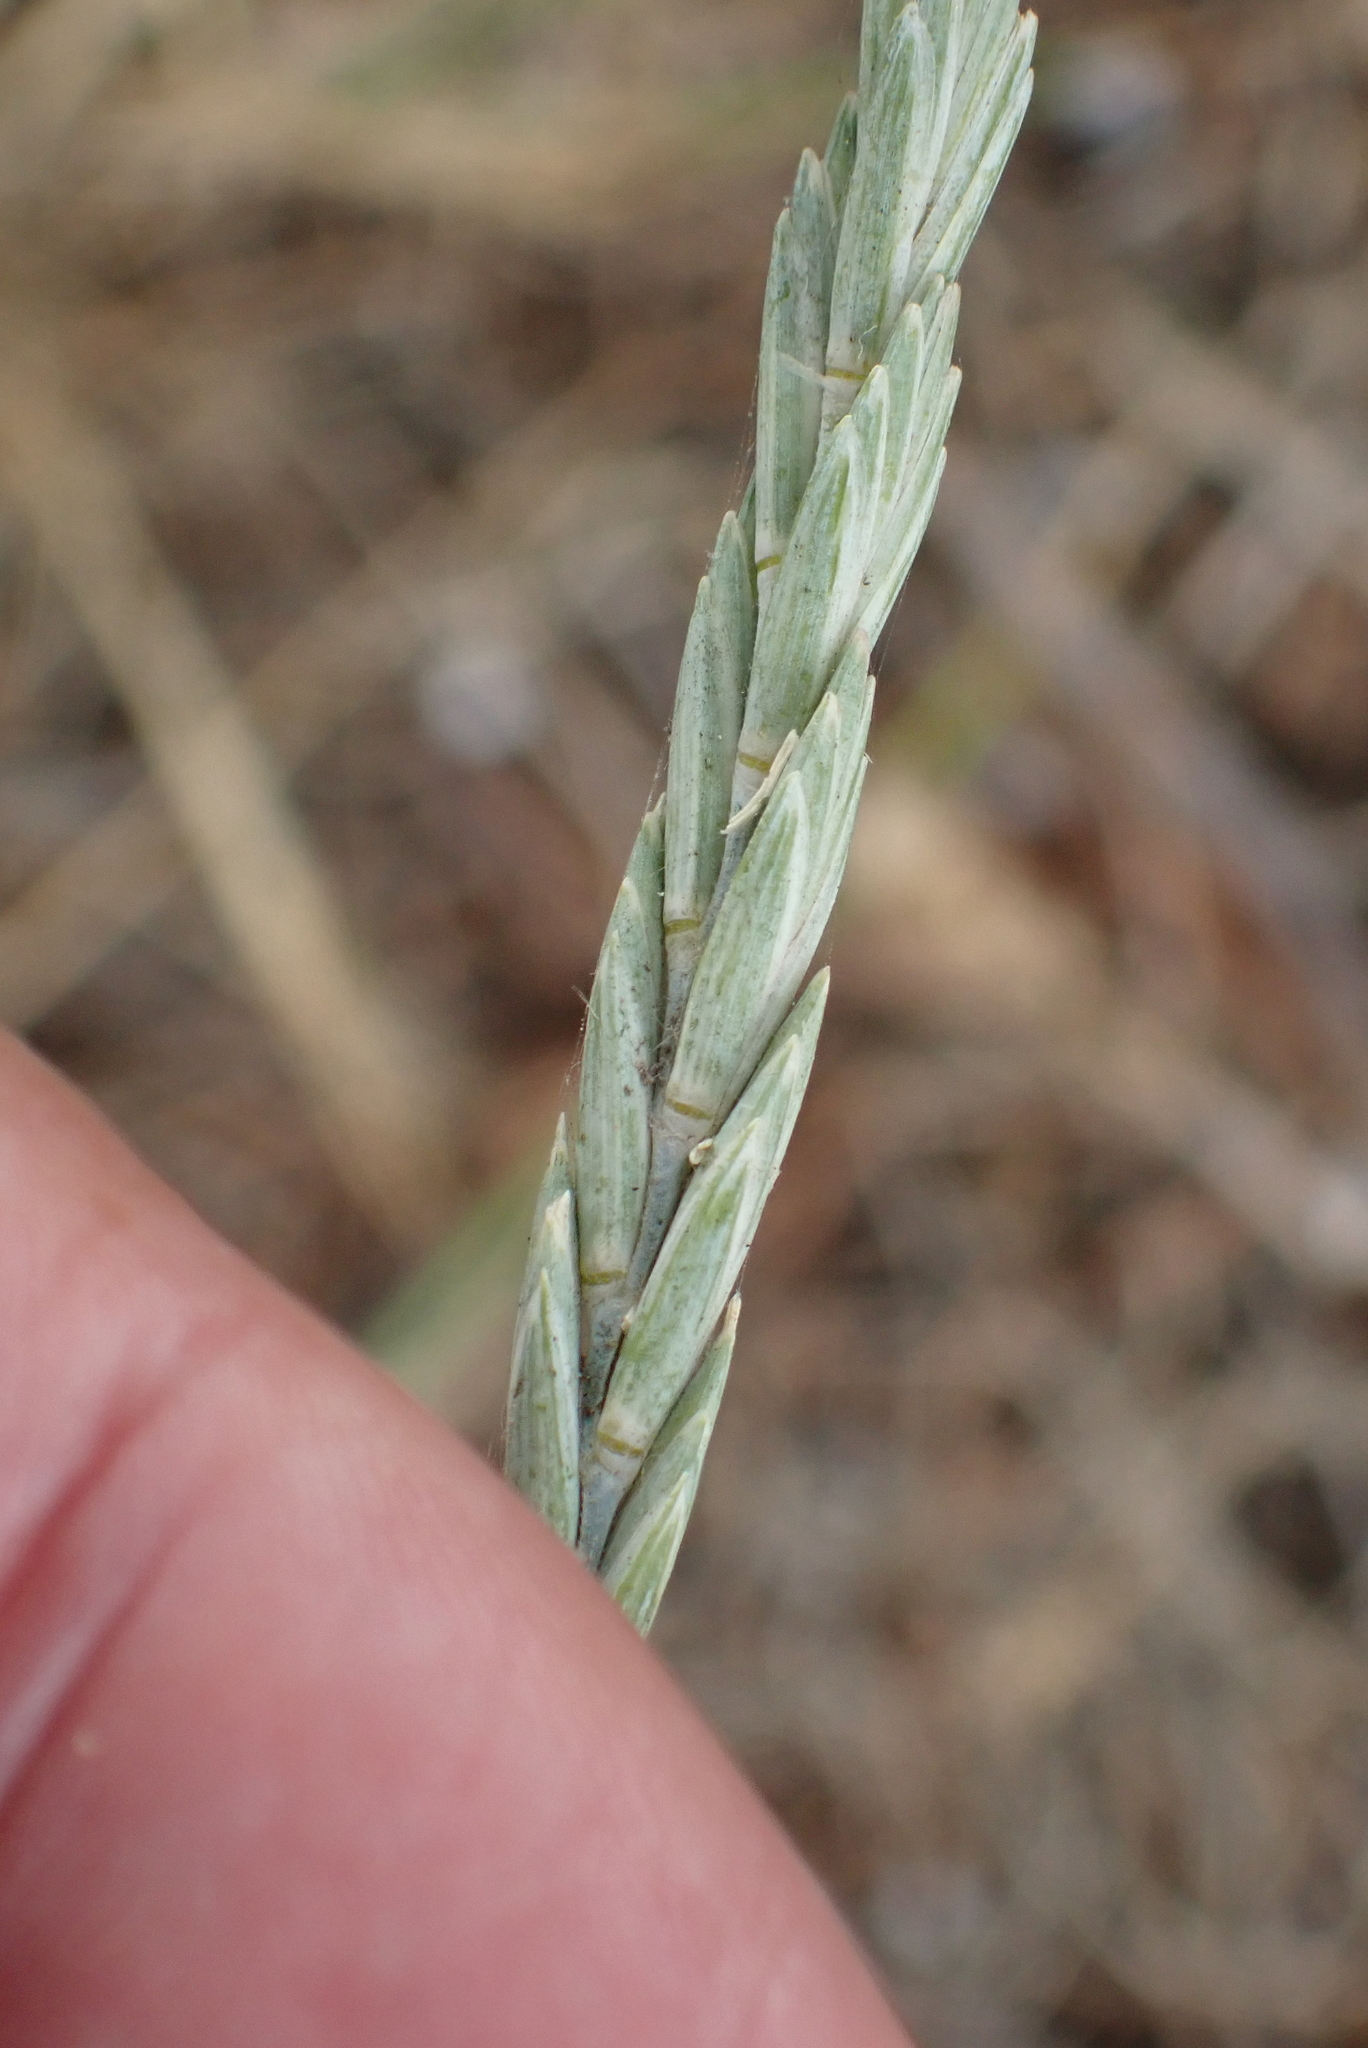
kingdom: Plantae
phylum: Tracheophyta
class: Liliopsida
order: Poales
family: Poaceae
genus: Thinopyrum
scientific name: Thinopyrum junceum
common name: Russian wheatgrass
